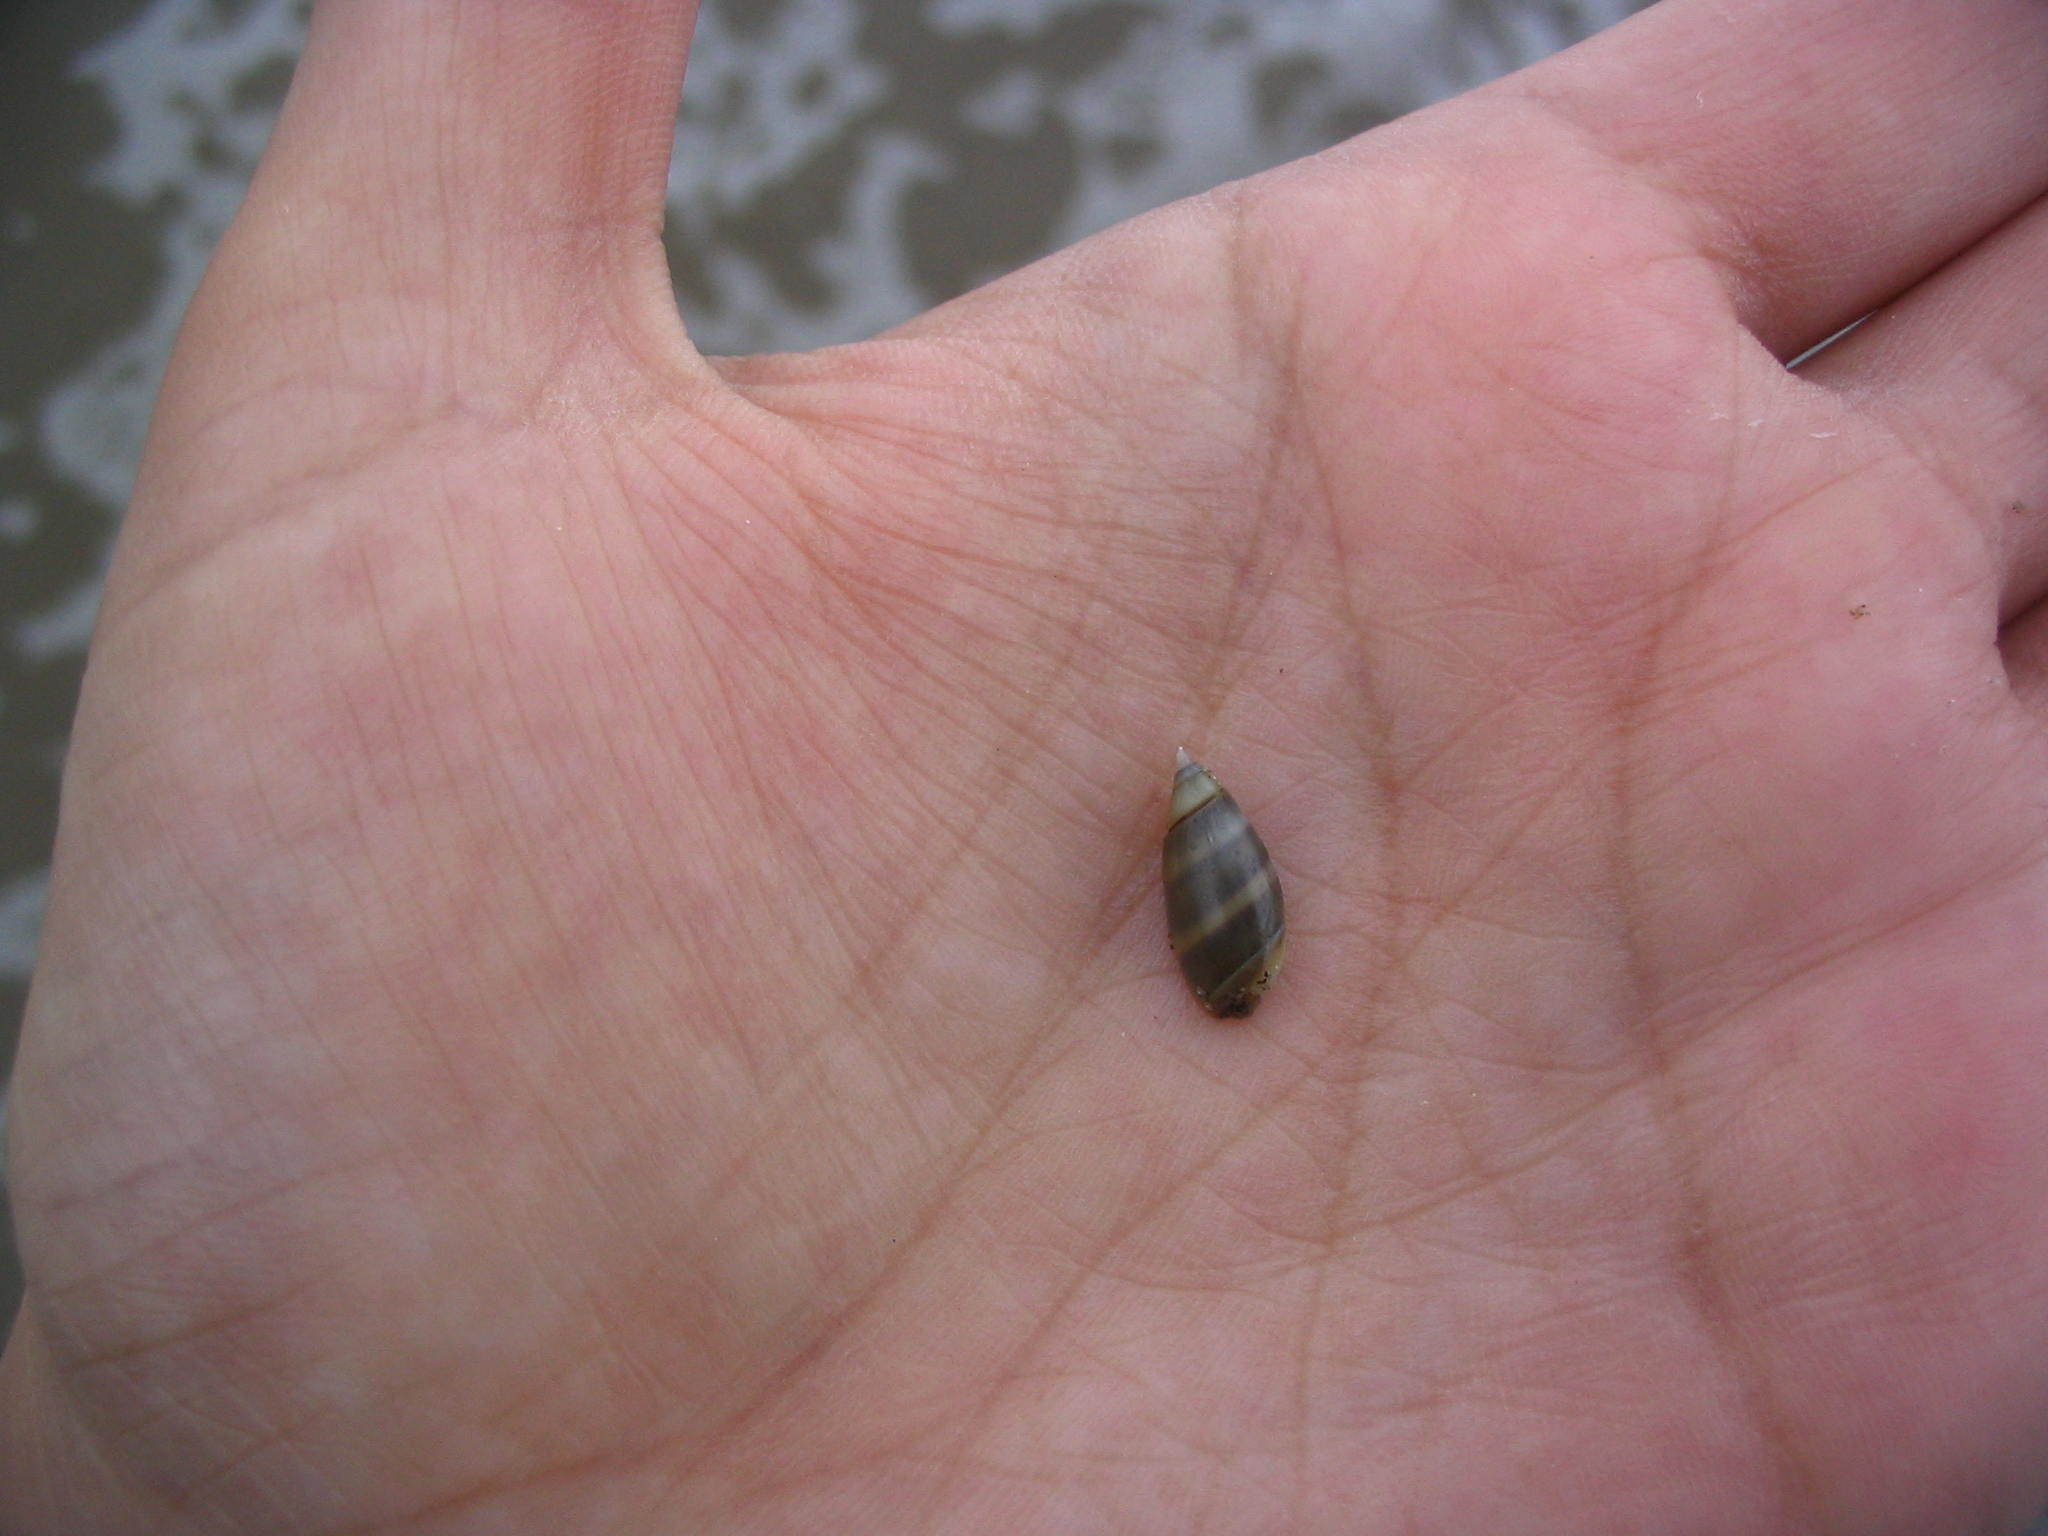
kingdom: Animalia
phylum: Mollusca
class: Gastropoda
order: Neogastropoda
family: Olividae
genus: Pachyoliva
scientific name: Pachyoliva semistriata
